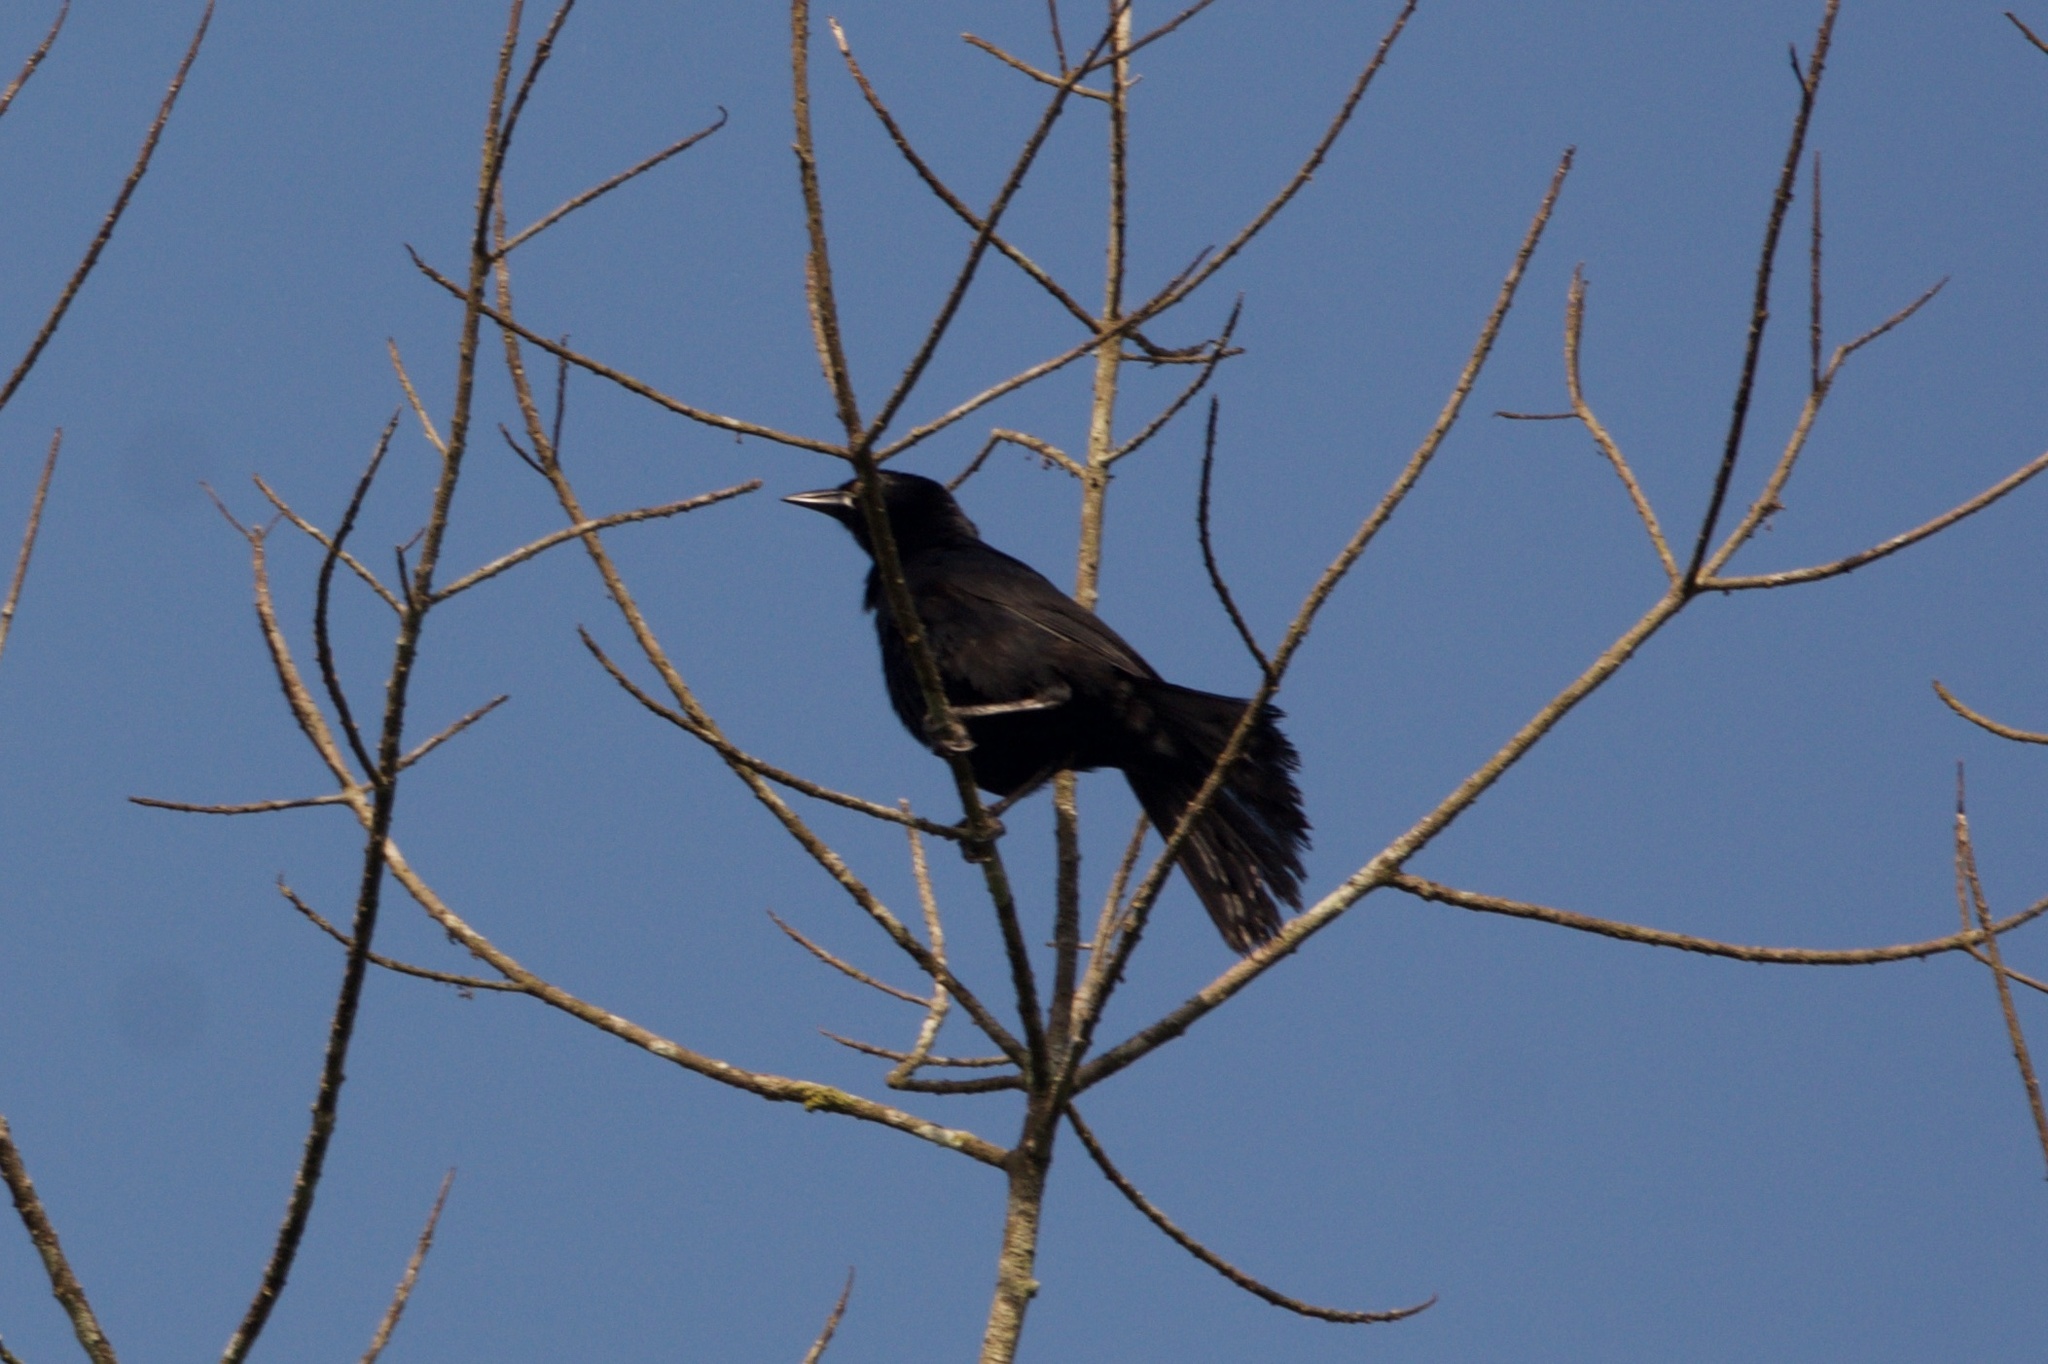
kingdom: Animalia
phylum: Chordata
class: Aves
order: Passeriformes
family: Icteridae
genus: Dives
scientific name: Dives dives
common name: Melodious blackbird
